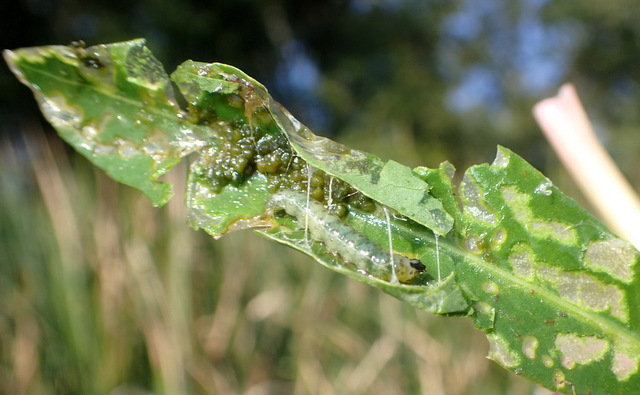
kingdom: Animalia
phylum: Arthropoda
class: Insecta
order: Lepidoptera
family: Crambidae
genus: Herpetogramma
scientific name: Herpetogramma bipunctalis
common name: Southern beet webworm
